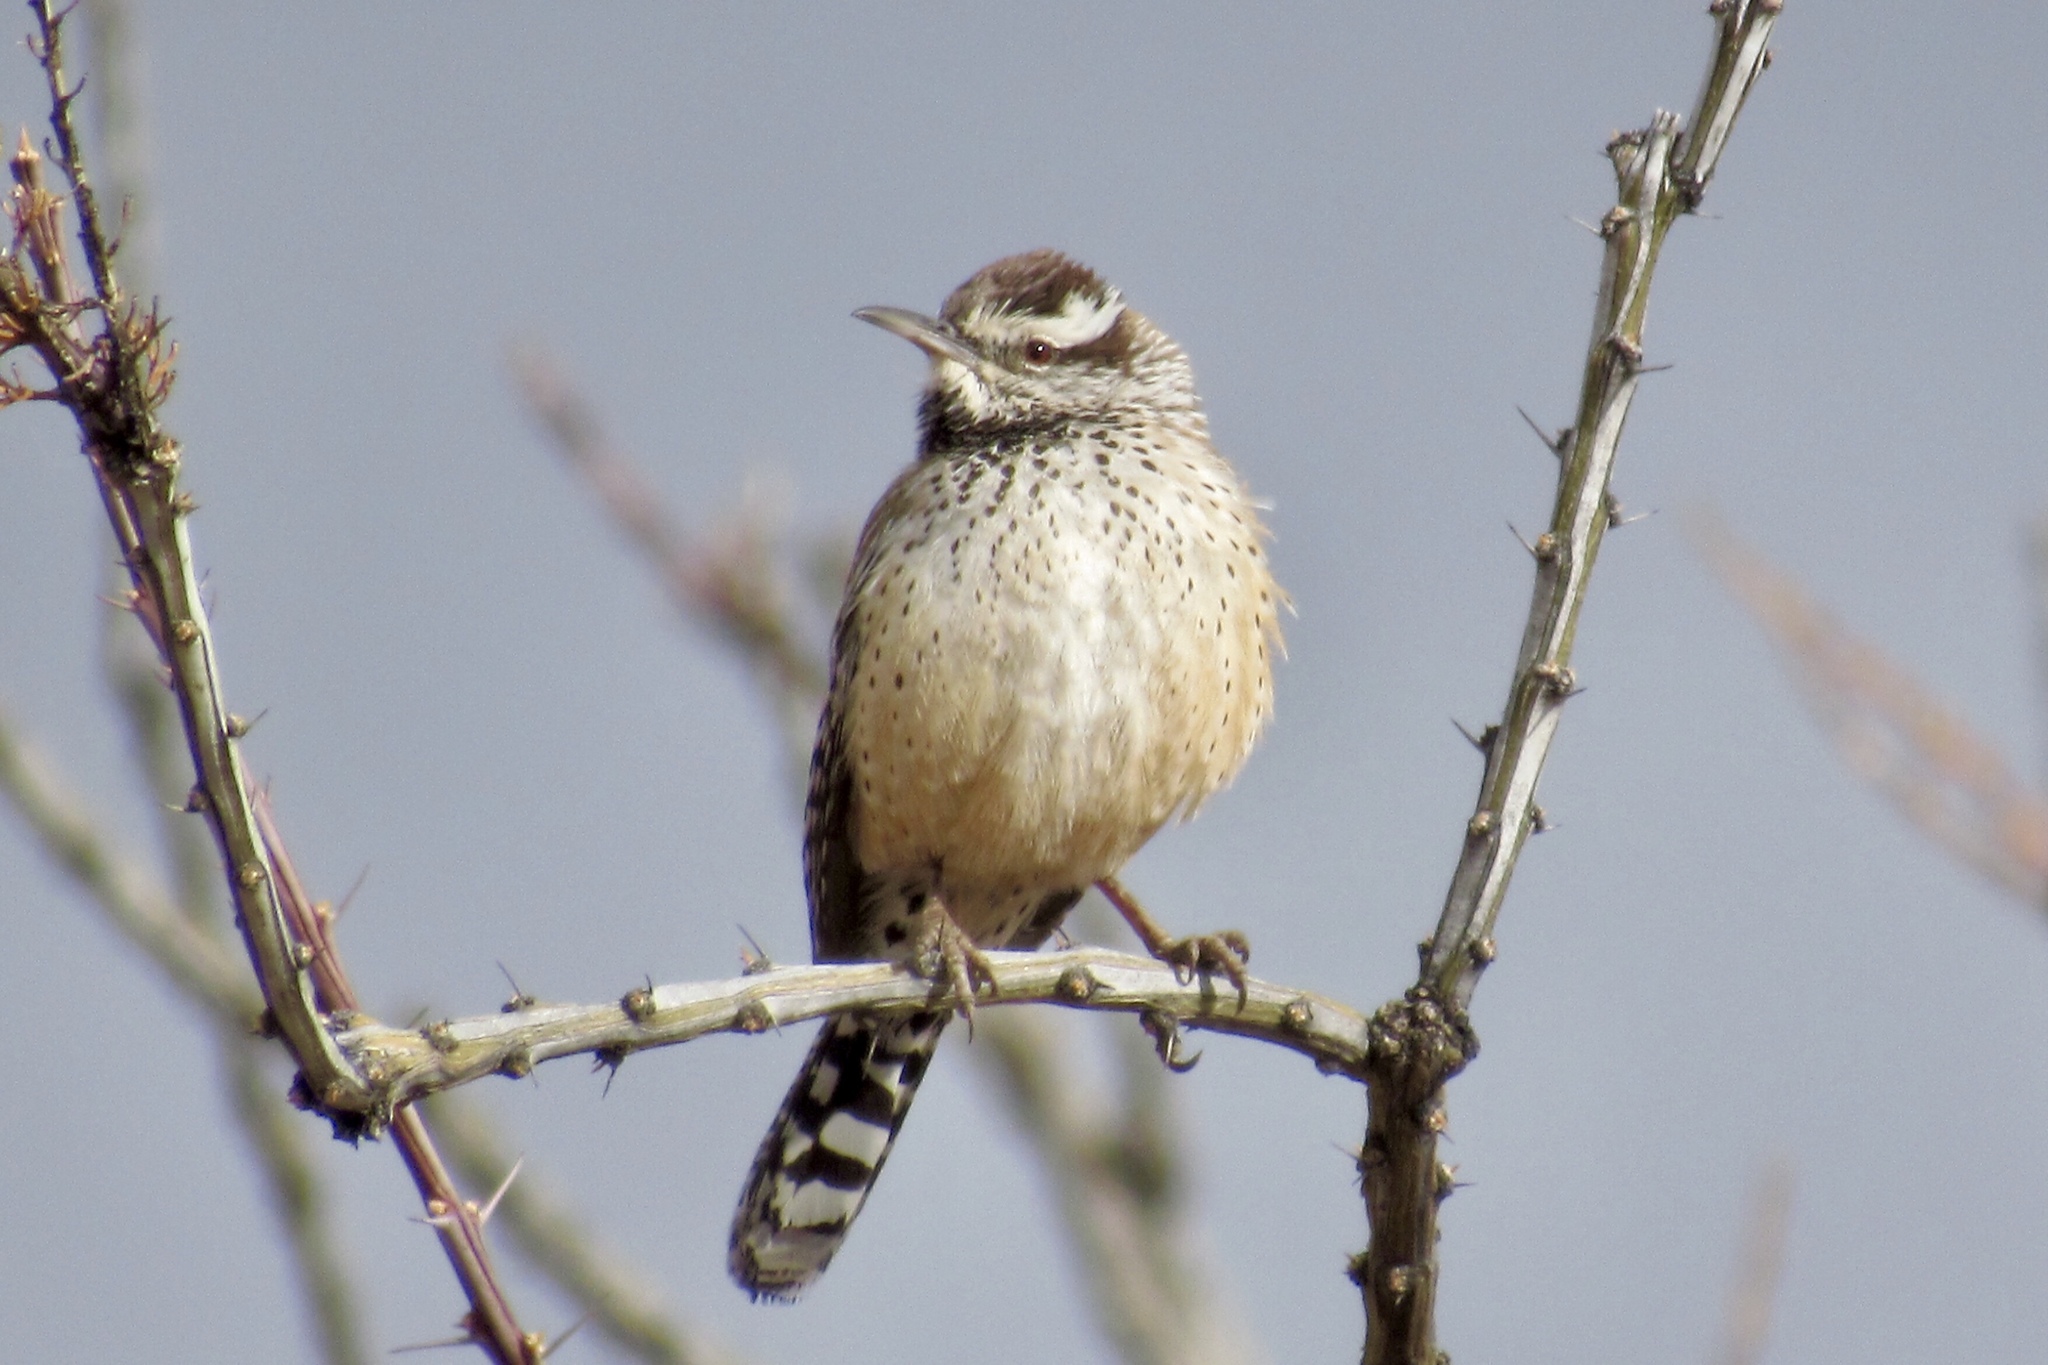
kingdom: Animalia
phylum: Chordata
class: Aves
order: Passeriformes
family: Troglodytidae
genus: Campylorhynchus
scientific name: Campylorhynchus brunneicapillus
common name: Cactus wren
